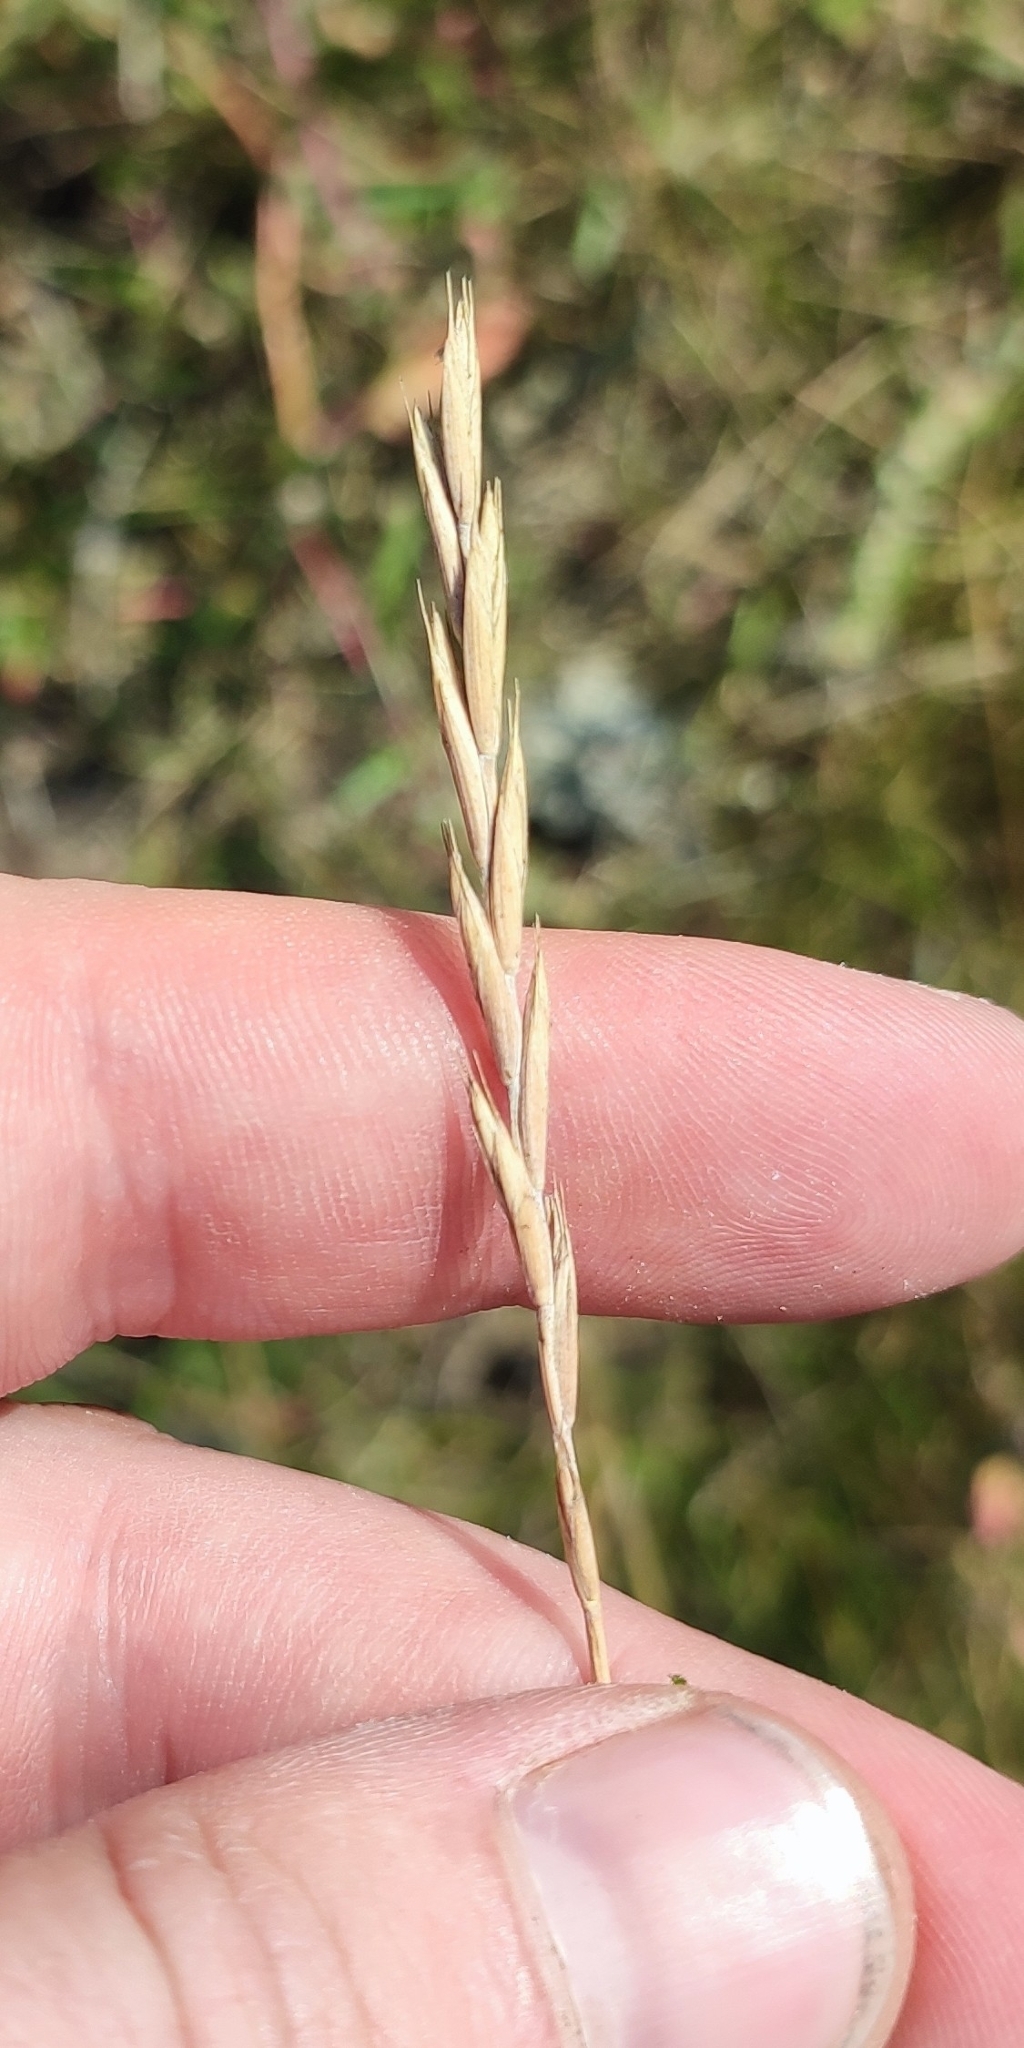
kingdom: Plantae
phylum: Tracheophyta
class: Liliopsida
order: Poales
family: Poaceae
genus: Elymus
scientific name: Elymus repens
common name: Quackgrass
